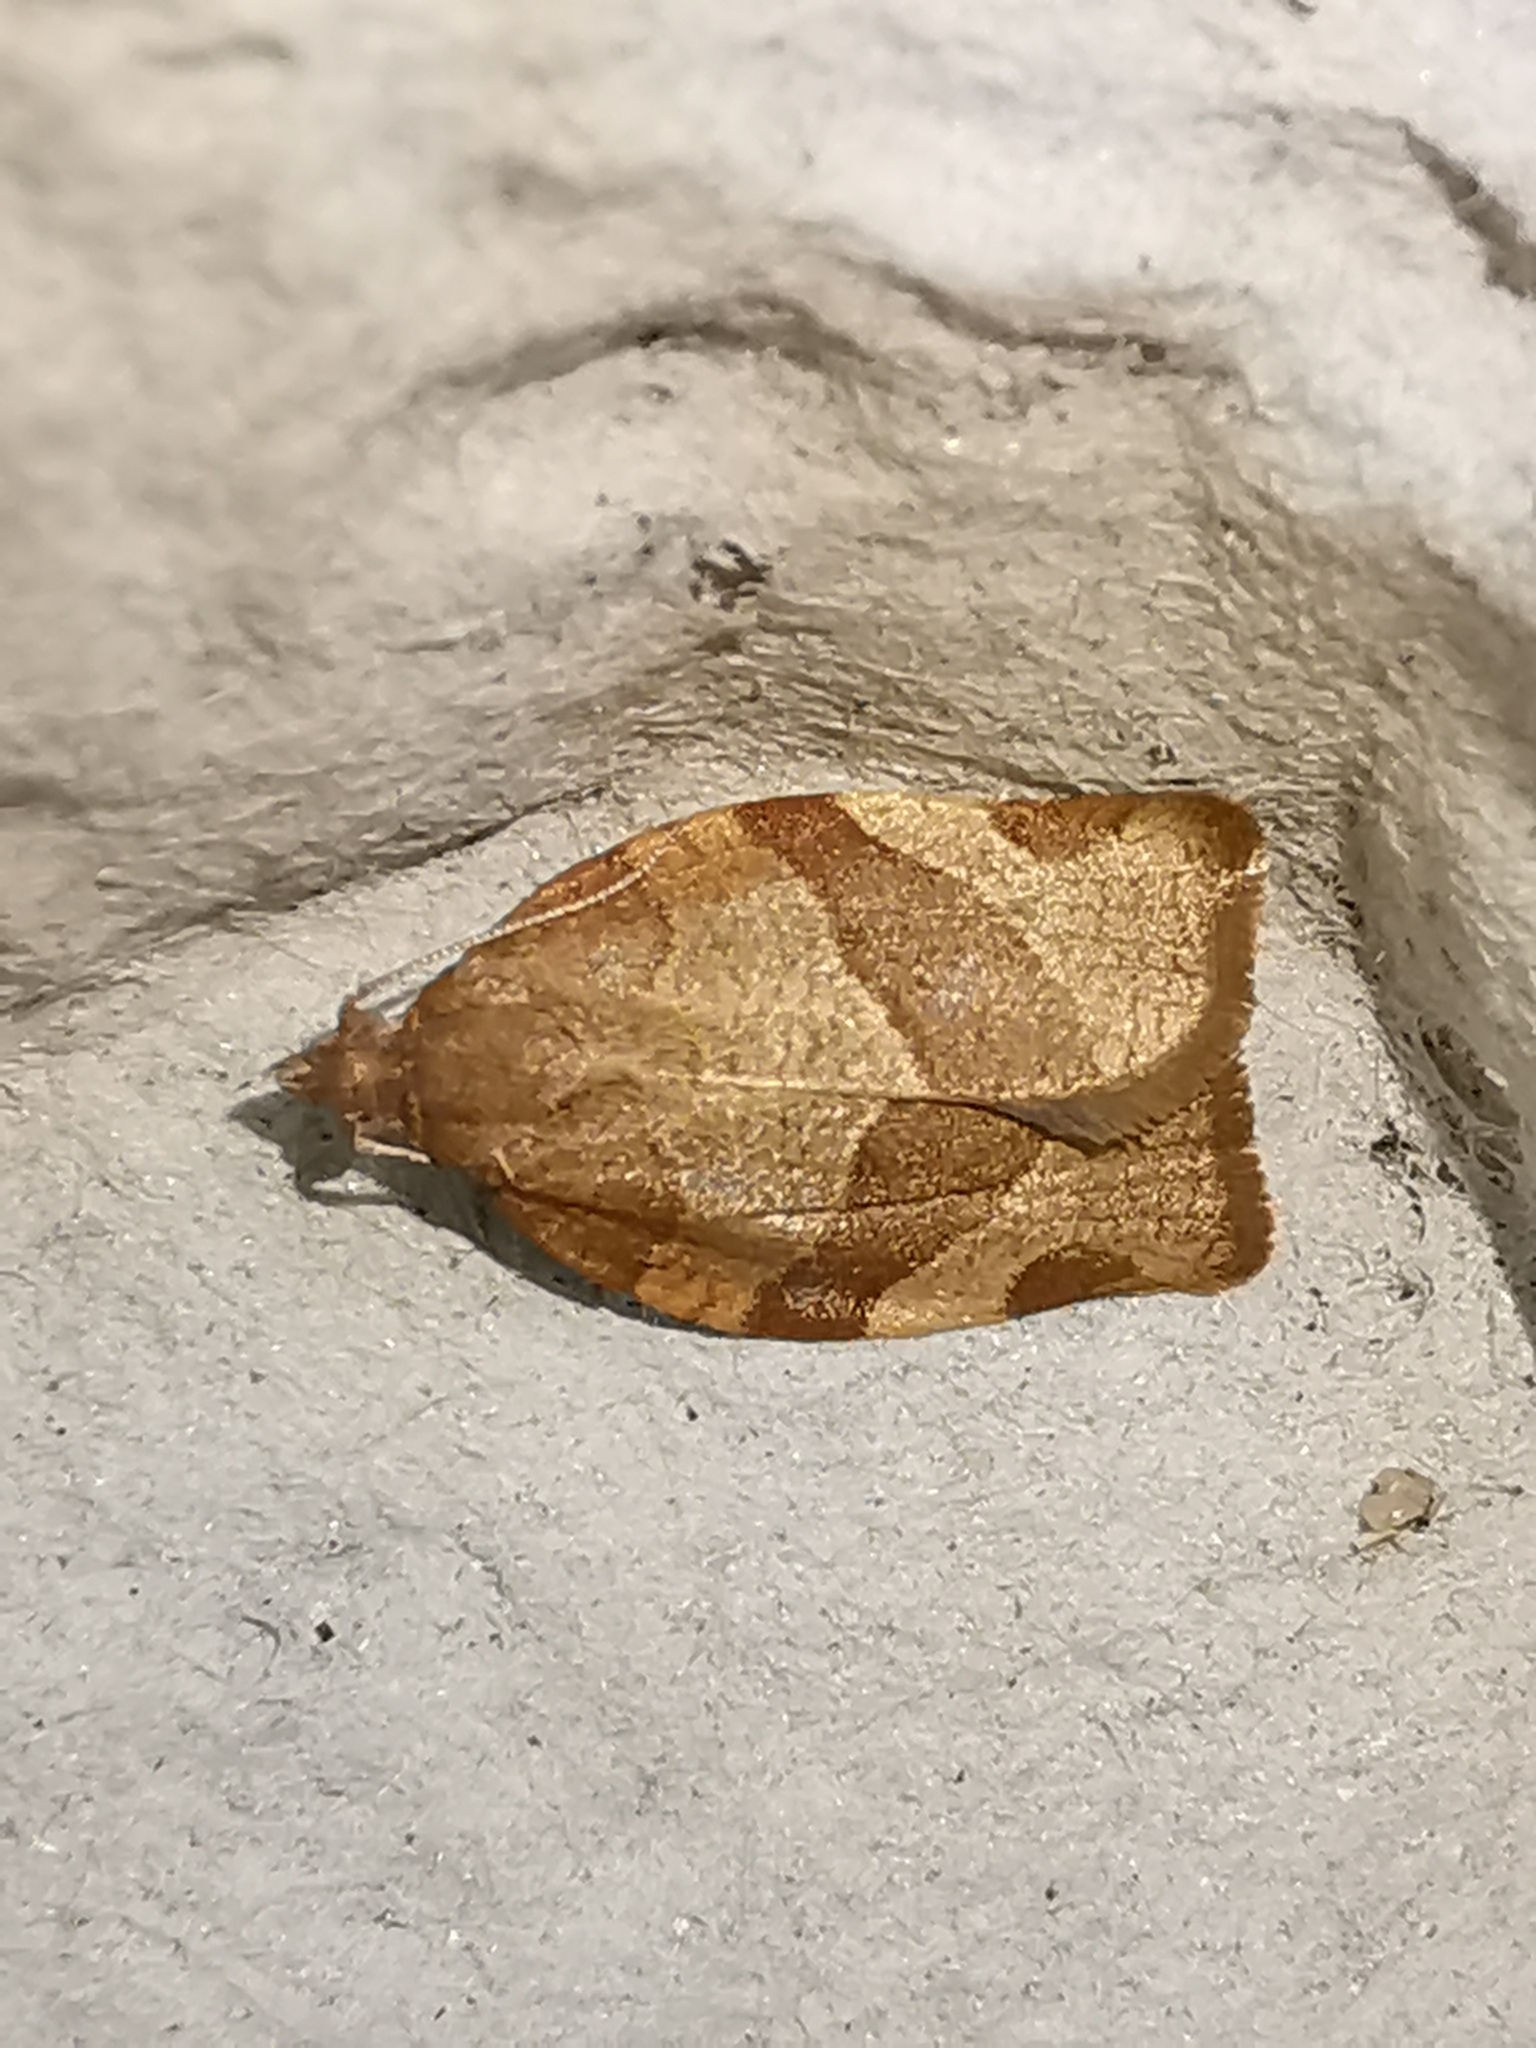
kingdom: Animalia
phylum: Arthropoda
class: Insecta
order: Lepidoptera
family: Tortricidae
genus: Pandemis
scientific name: Pandemis cerasana
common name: Barred fruit-tree tortrix
